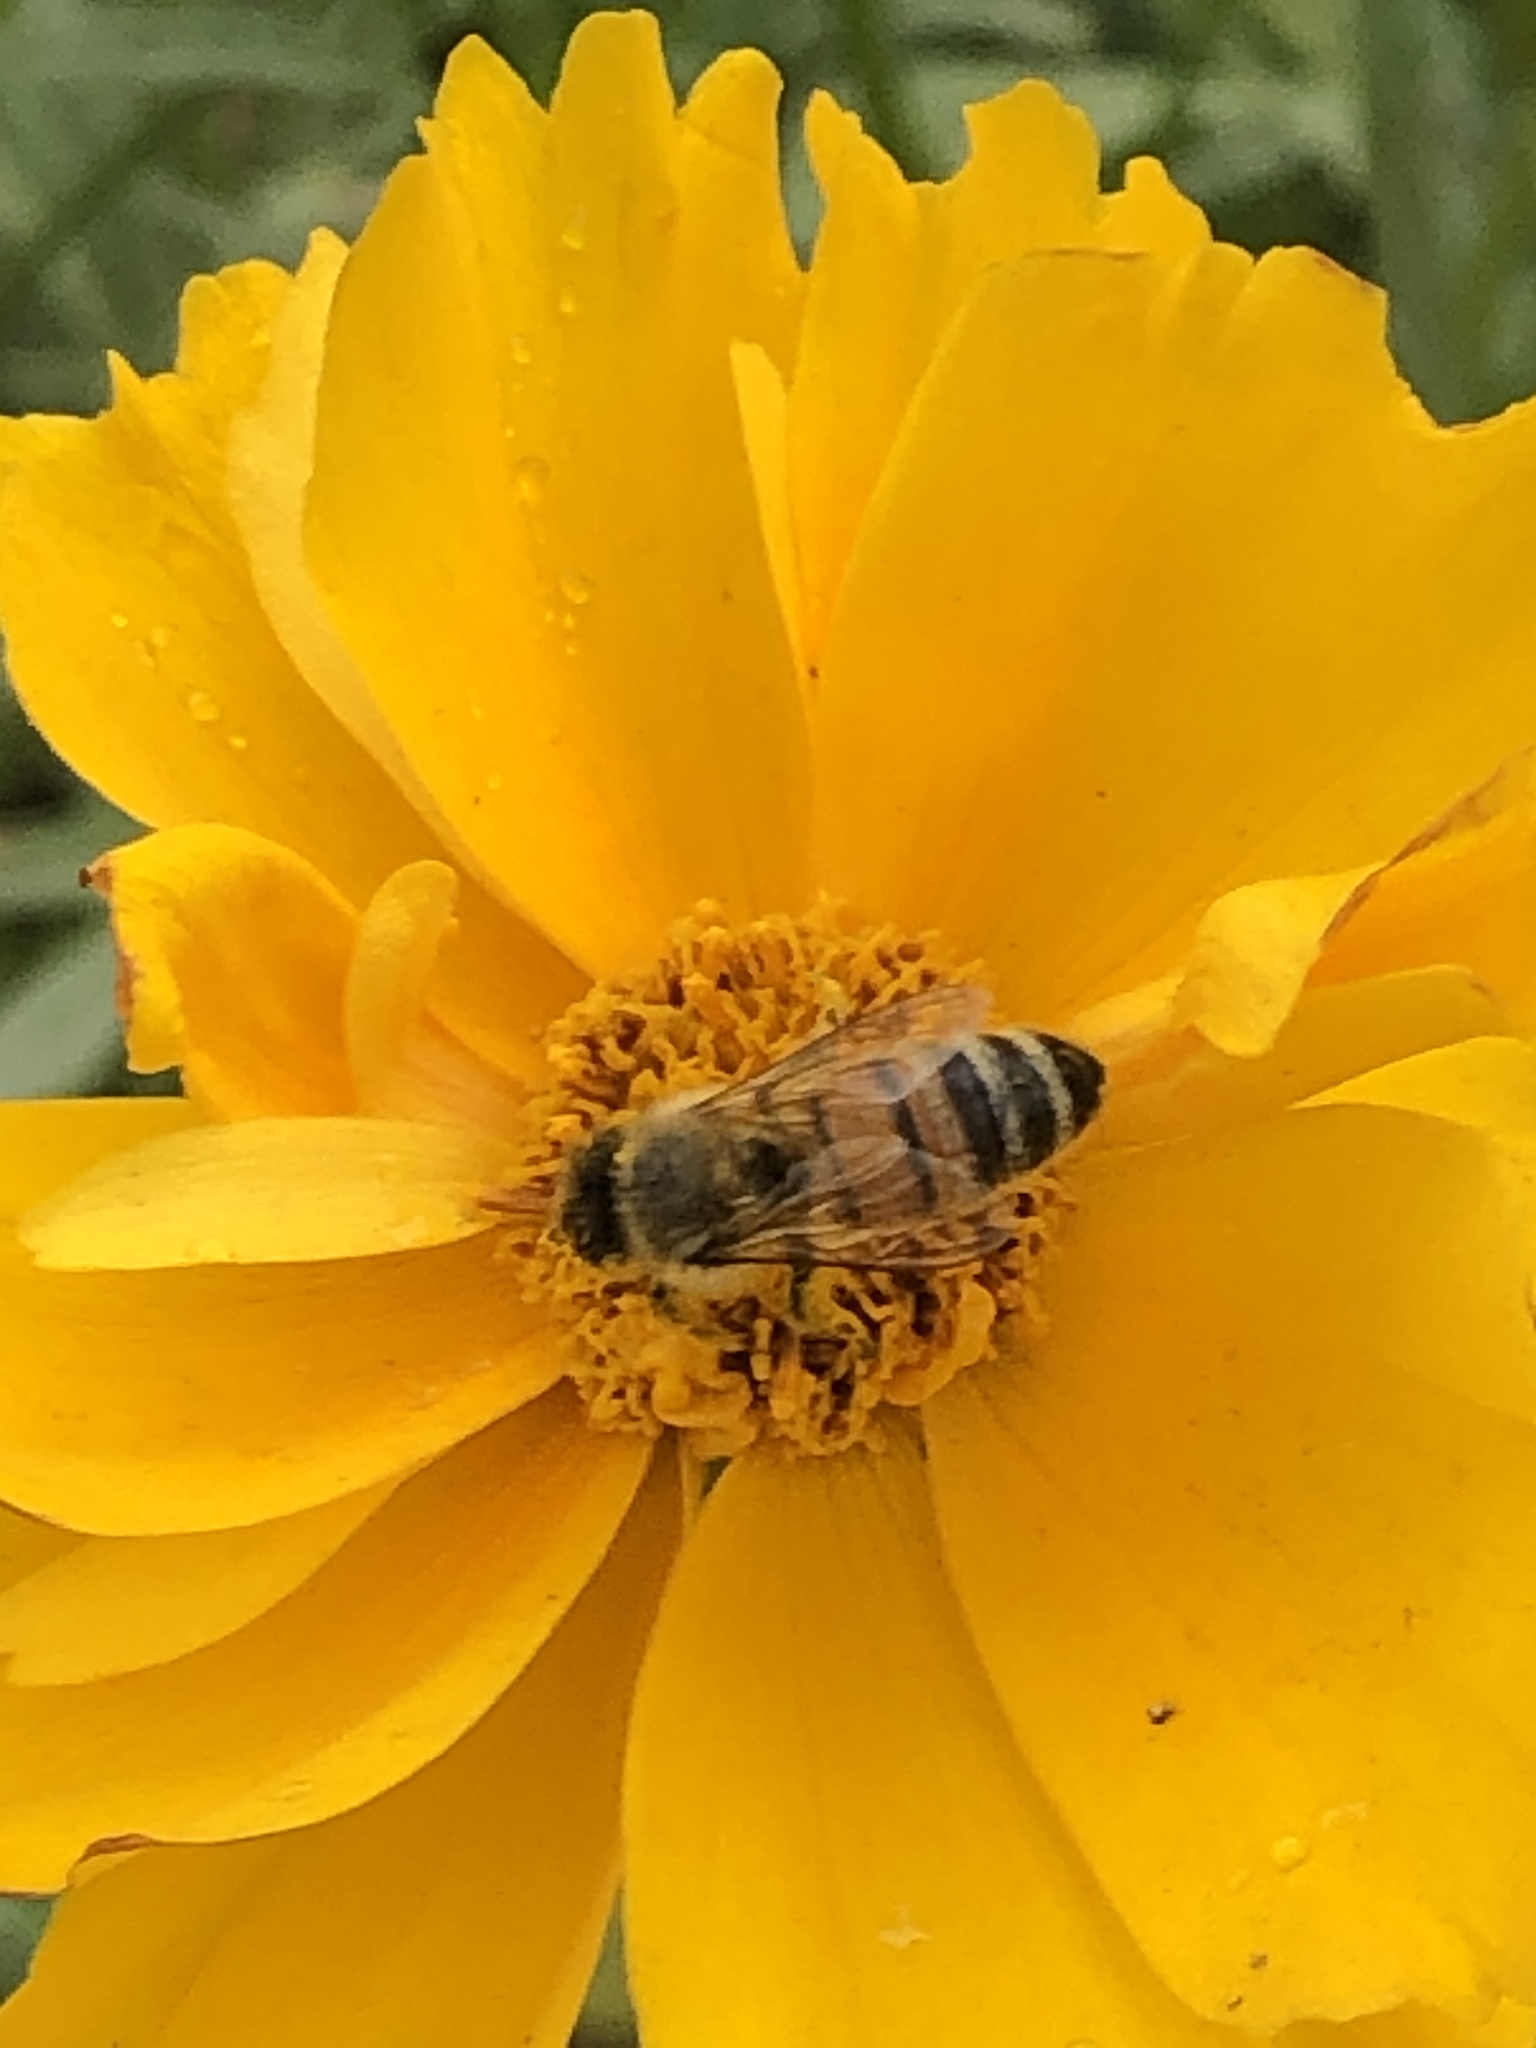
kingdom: Animalia
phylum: Arthropoda
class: Insecta
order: Hymenoptera
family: Apidae
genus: Apis
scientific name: Apis mellifera
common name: Honey bee
